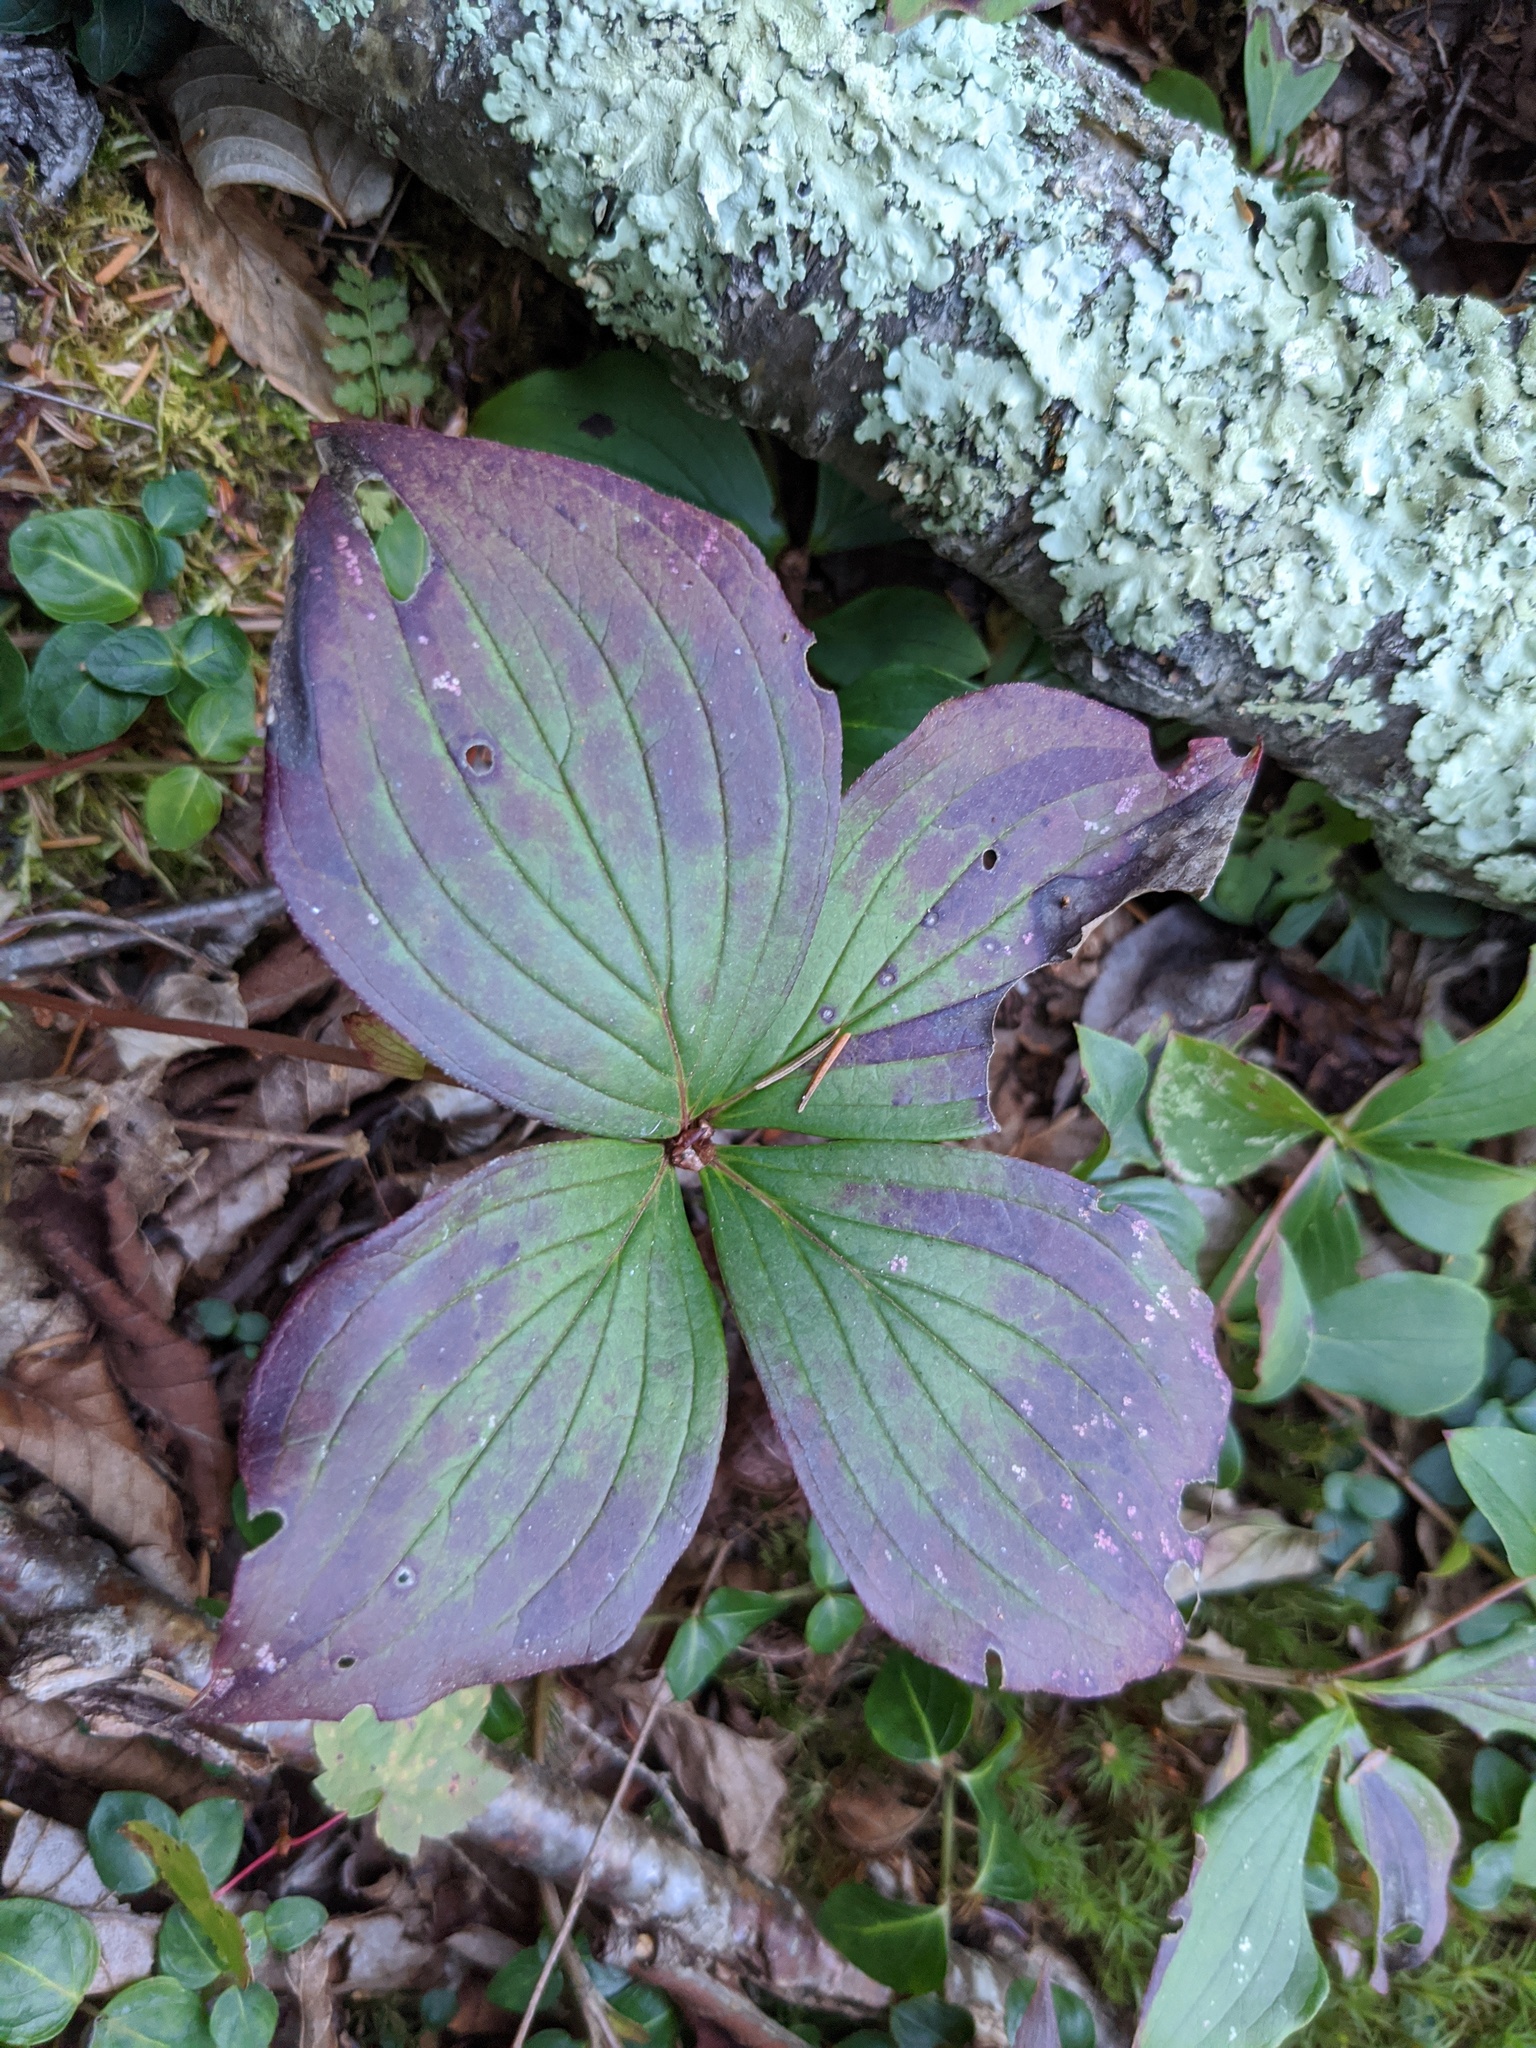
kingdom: Plantae
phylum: Tracheophyta
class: Magnoliopsida
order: Cornales
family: Cornaceae
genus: Cornus
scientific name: Cornus canadensis
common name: Creeping dogwood
